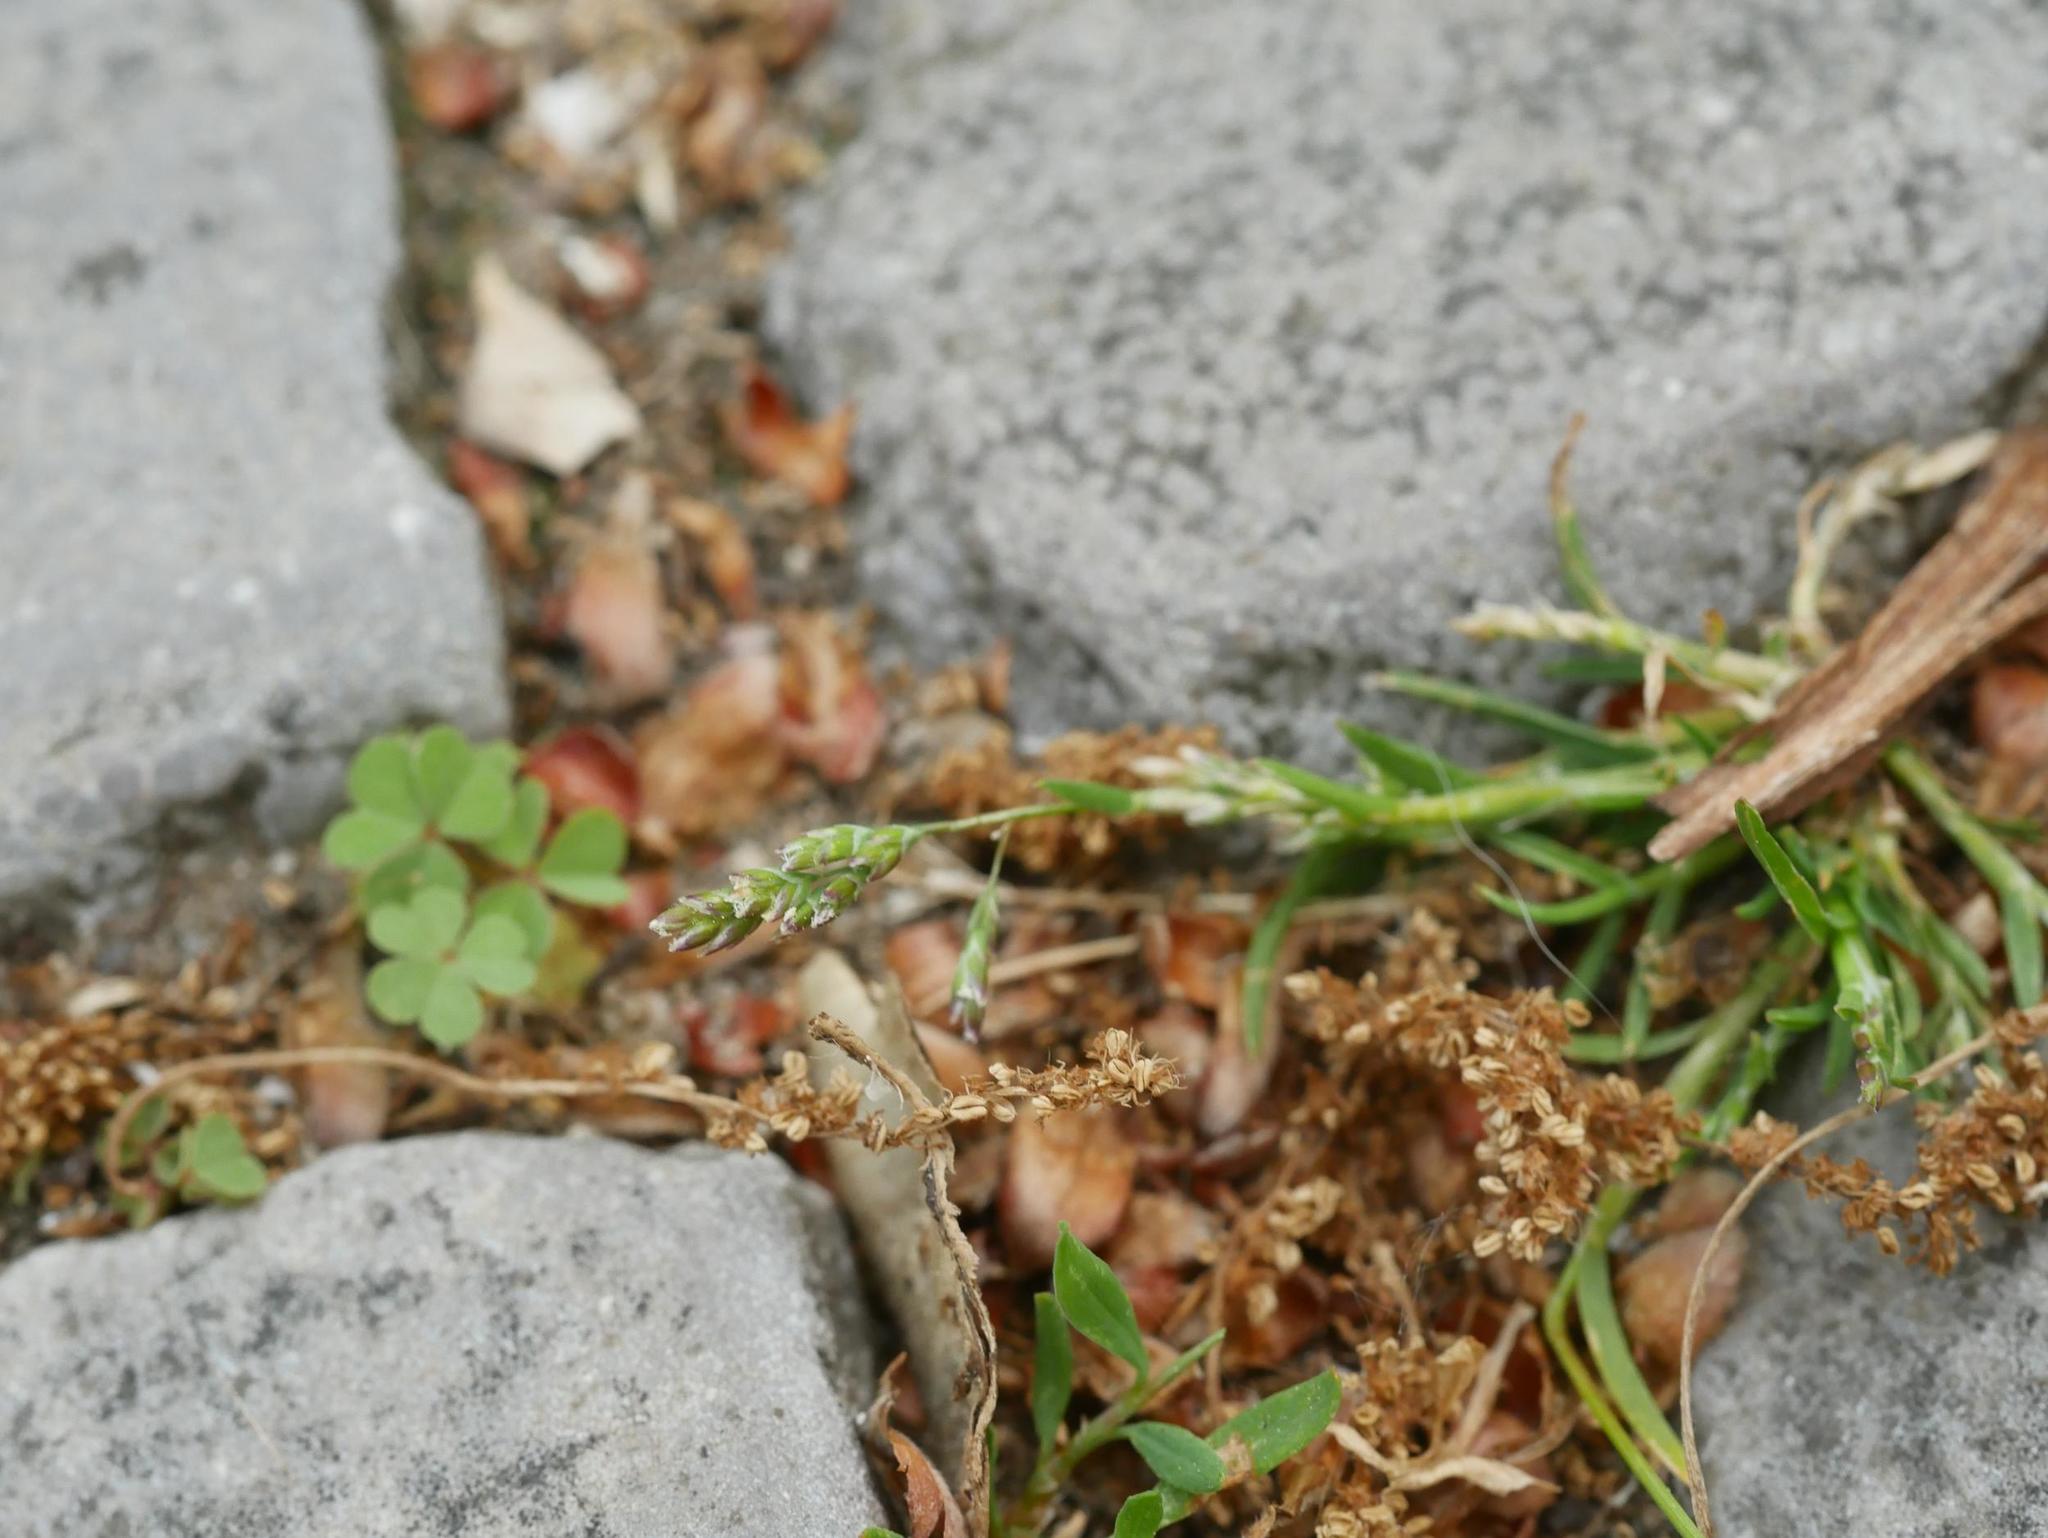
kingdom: Plantae
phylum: Tracheophyta
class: Liliopsida
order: Poales
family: Poaceae
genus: Poa
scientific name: Poa annua
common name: Annual bluegrass
